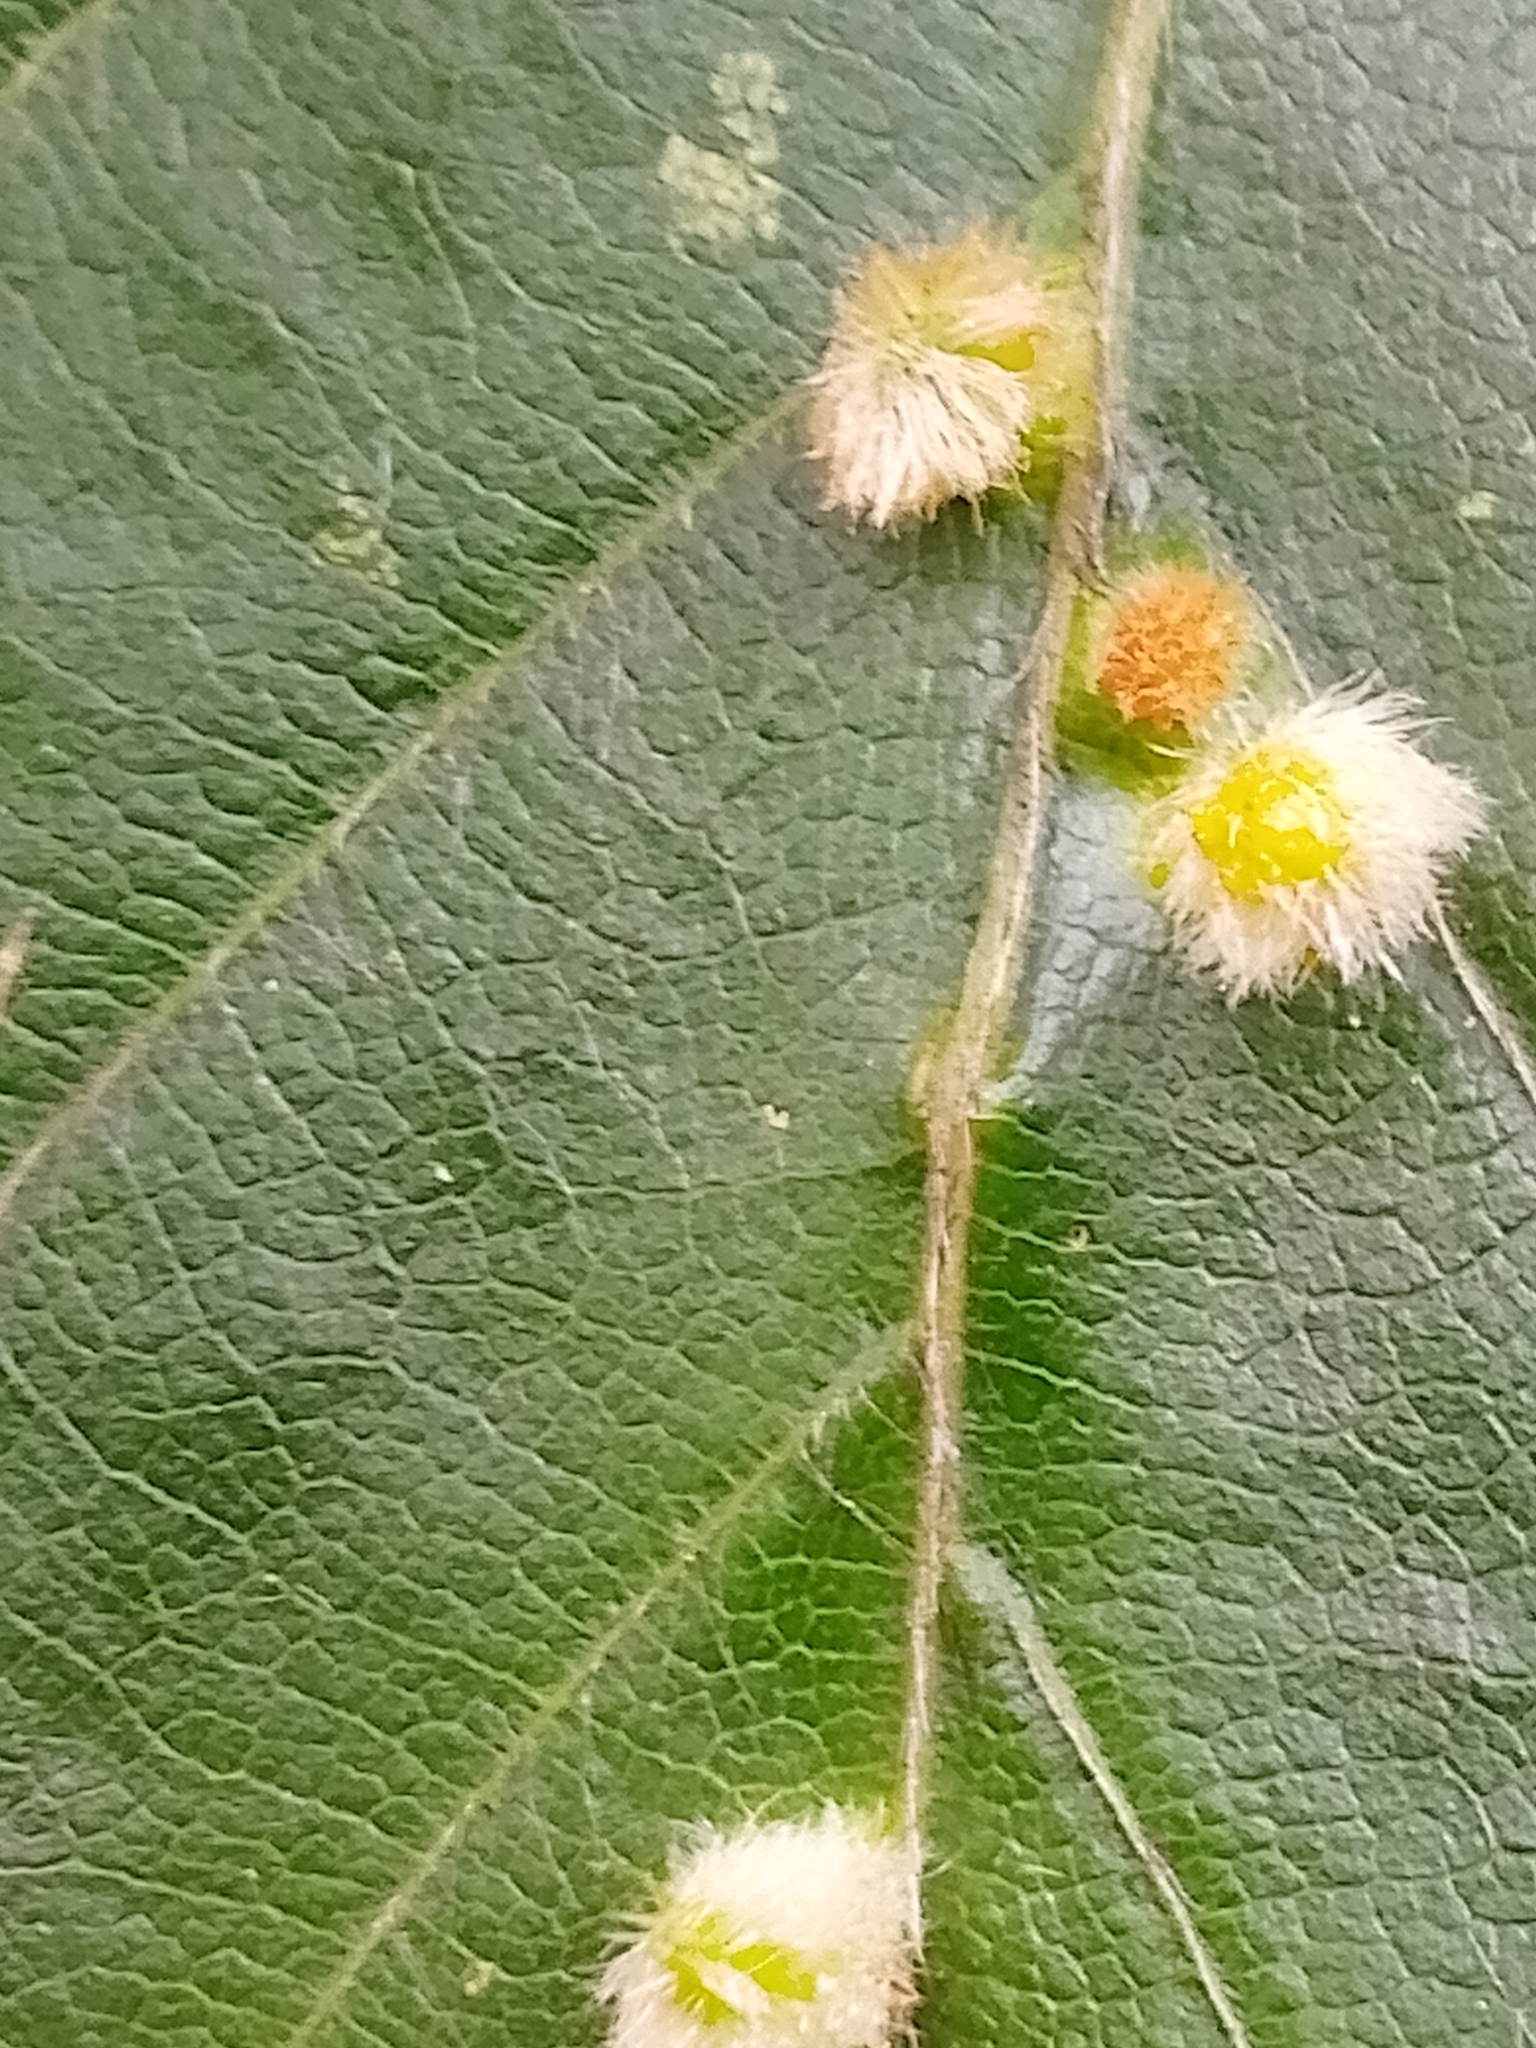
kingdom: Animalia
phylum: Arthropoda
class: Insecta
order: Diptera
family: Cecidomyiidae
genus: Hartigiola
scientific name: Hartigiola annulipes
